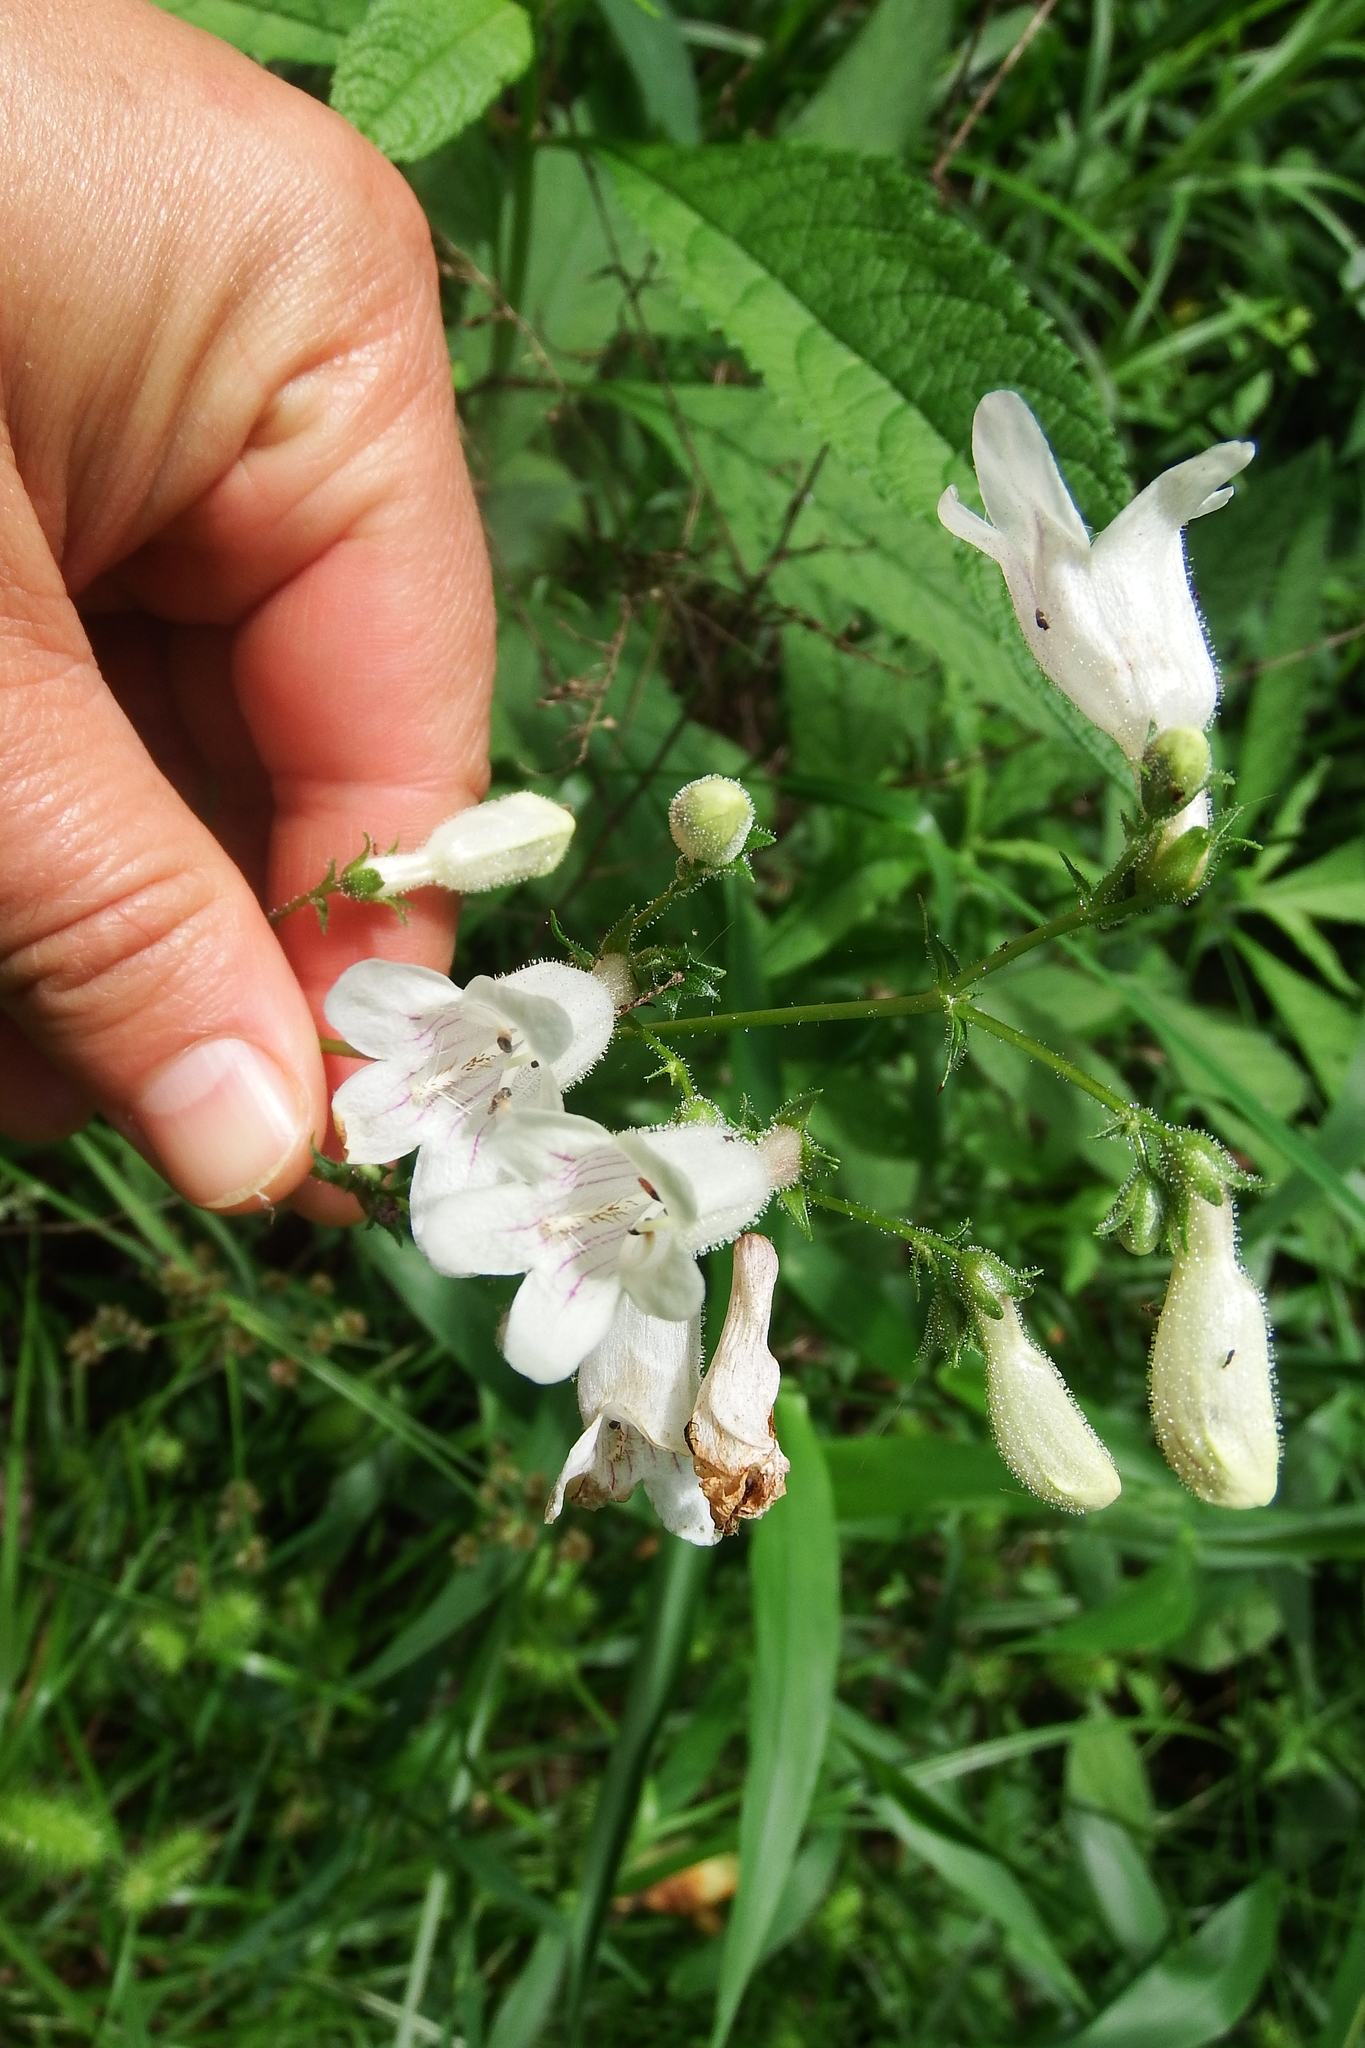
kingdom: Plantae
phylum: Tracheophyta
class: Magnoliopsida
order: Lamiales
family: Plantaginaceae
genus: Penstemon
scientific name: Penstemon digitalis
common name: Foxglove beardtongue
